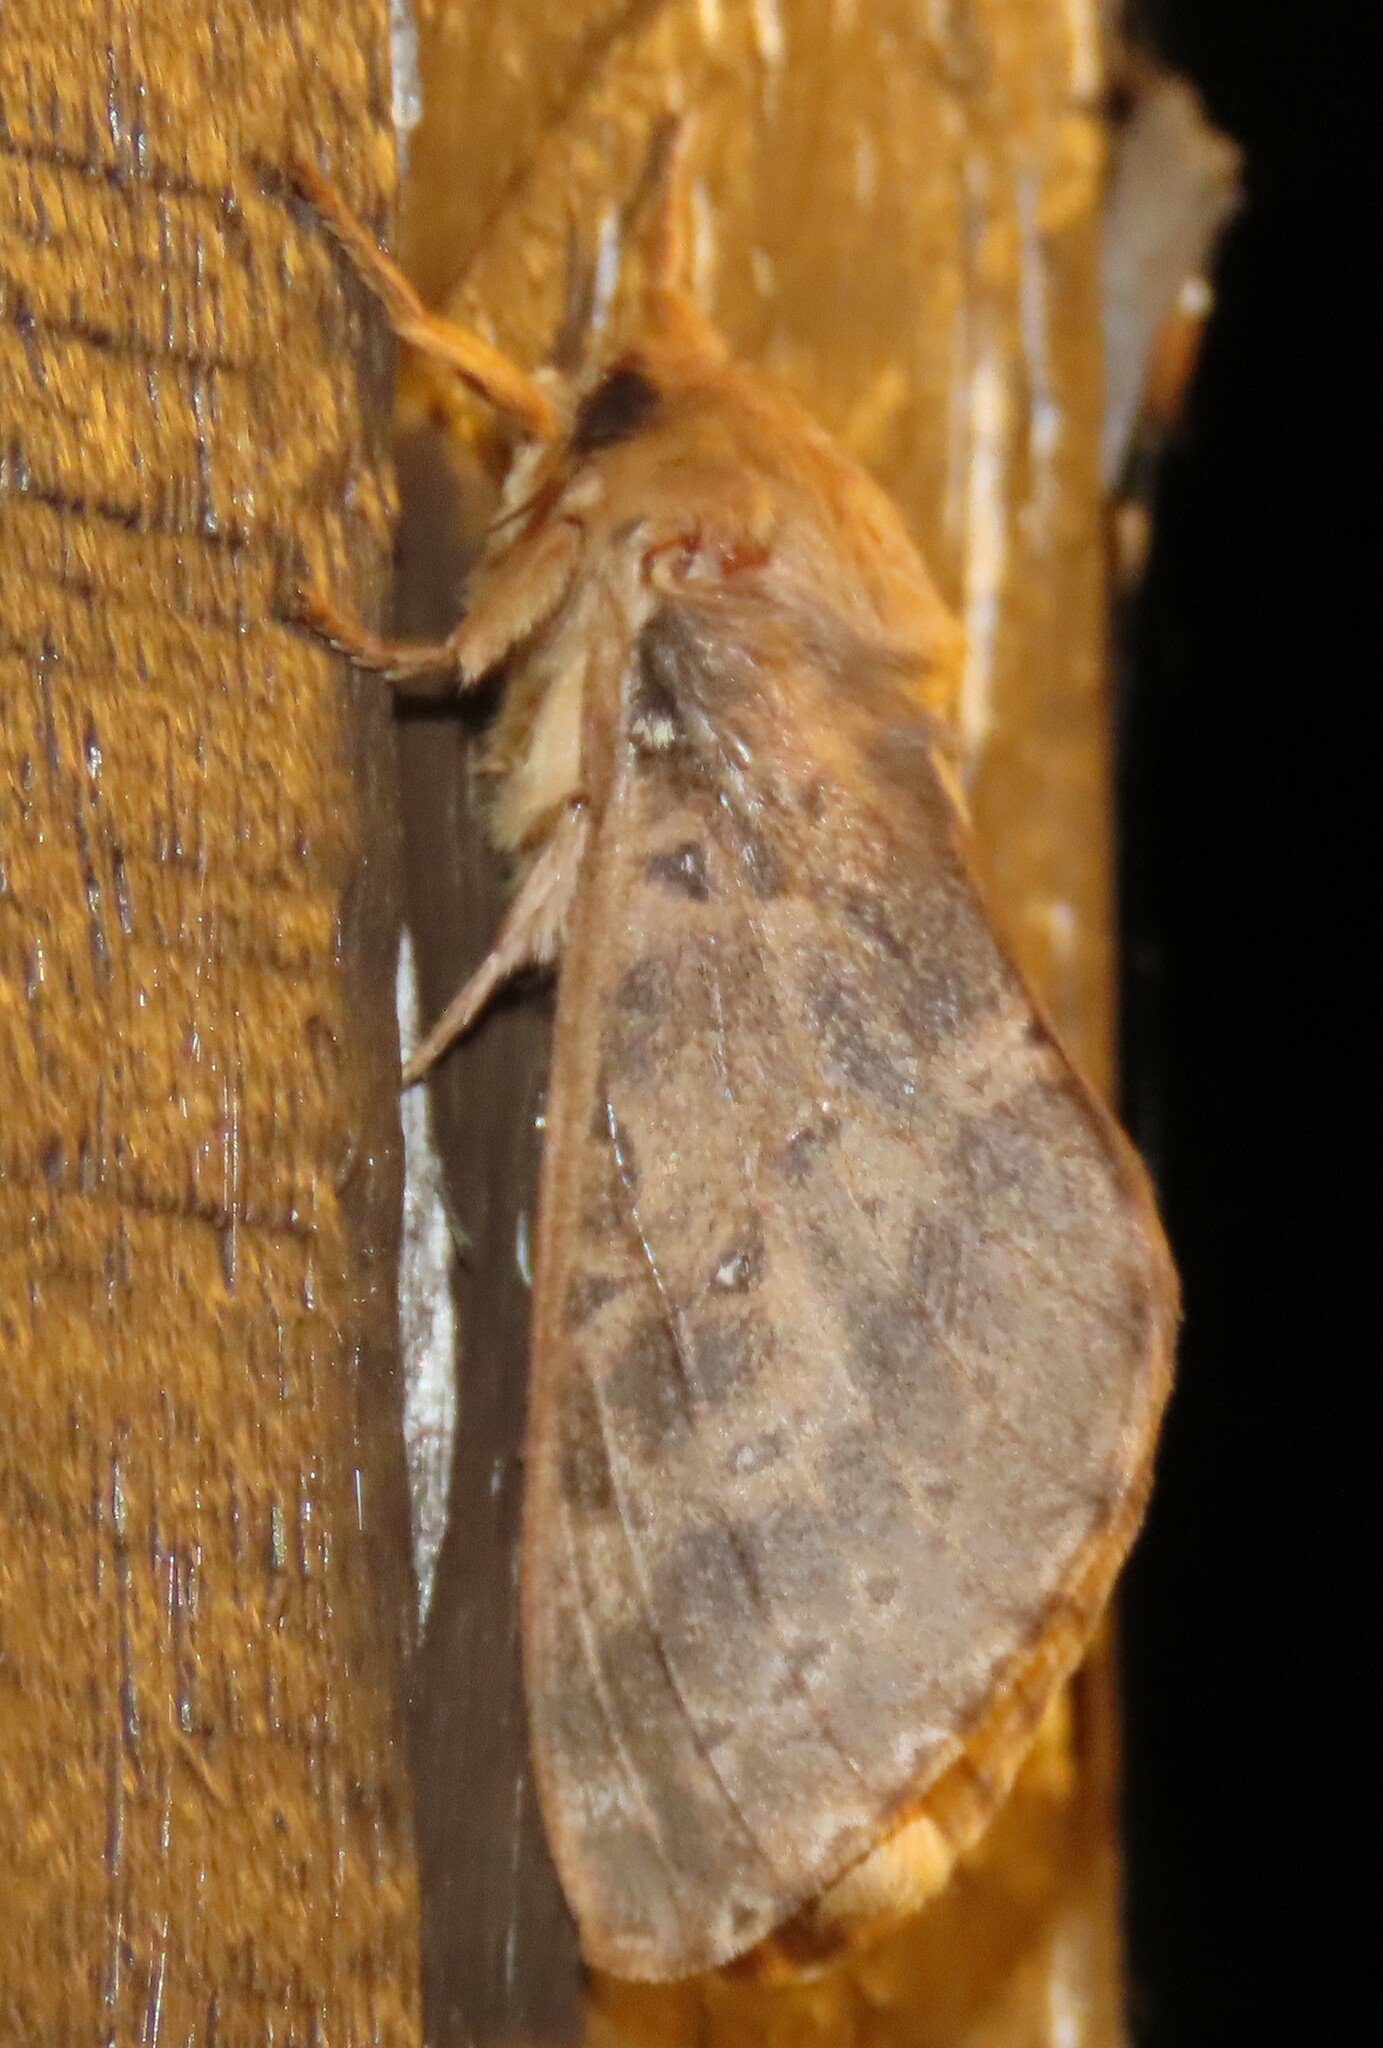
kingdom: Animalia
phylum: Arthropoda
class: Insecta
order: Lepidoptera
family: Hepialidae
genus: Wiseana
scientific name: Wiseana cervinata
